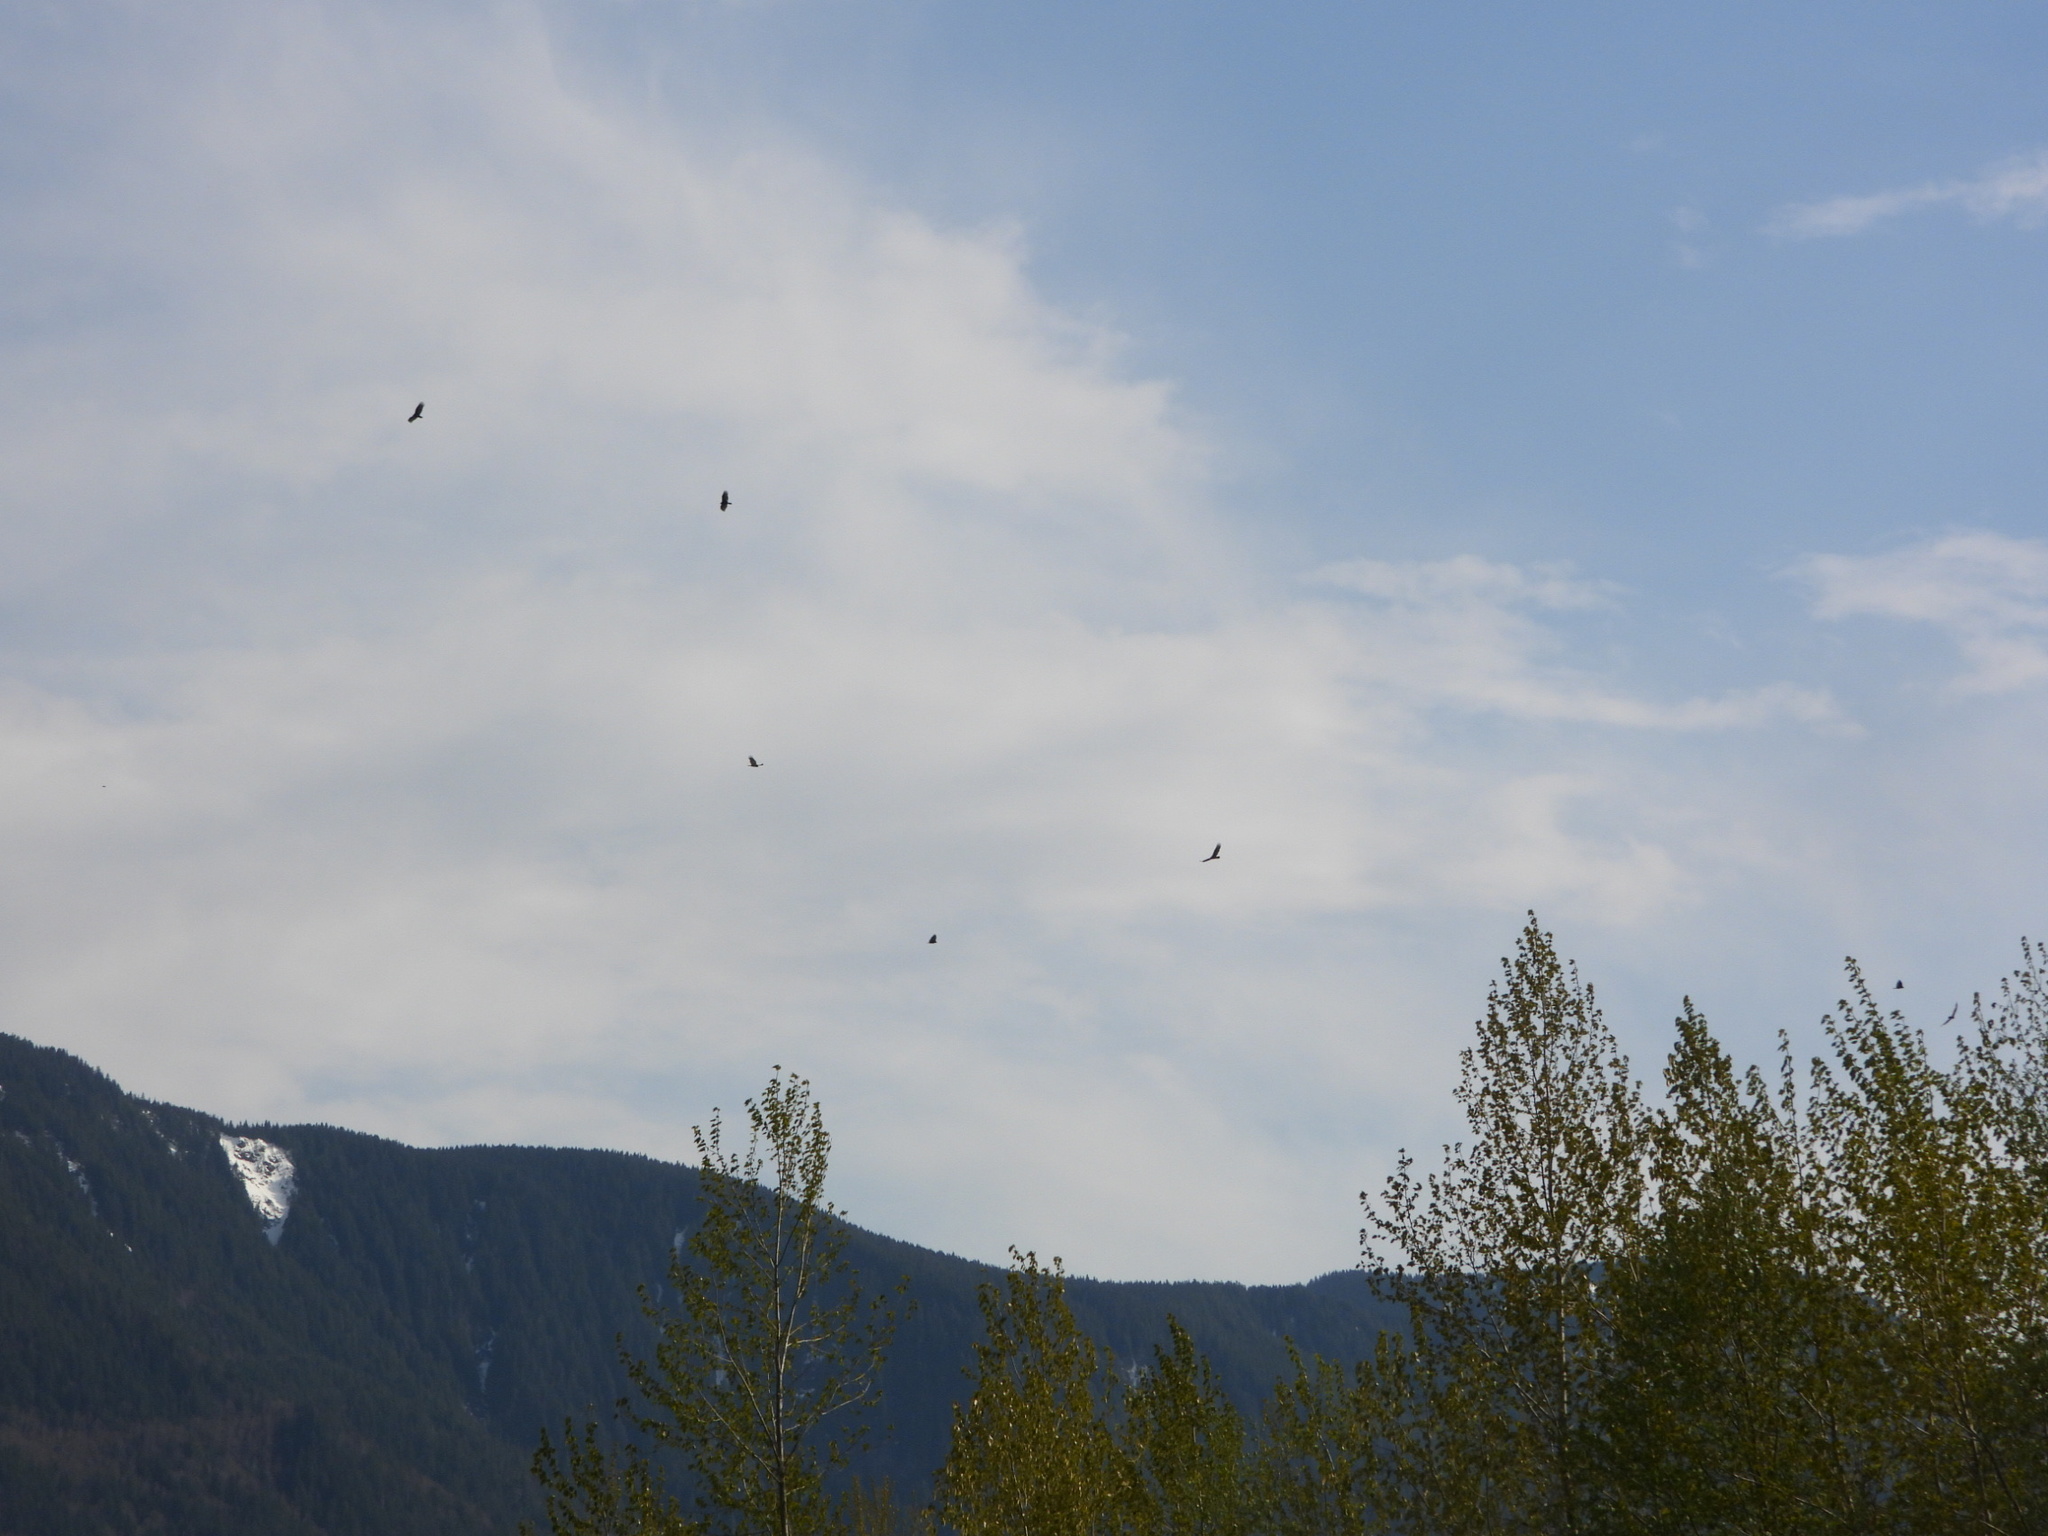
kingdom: Animalia
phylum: Chordata
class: Aves
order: Accipitriformes
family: Cathartidae
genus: Cathartes
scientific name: Cathartes aura
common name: Turkey vulture
